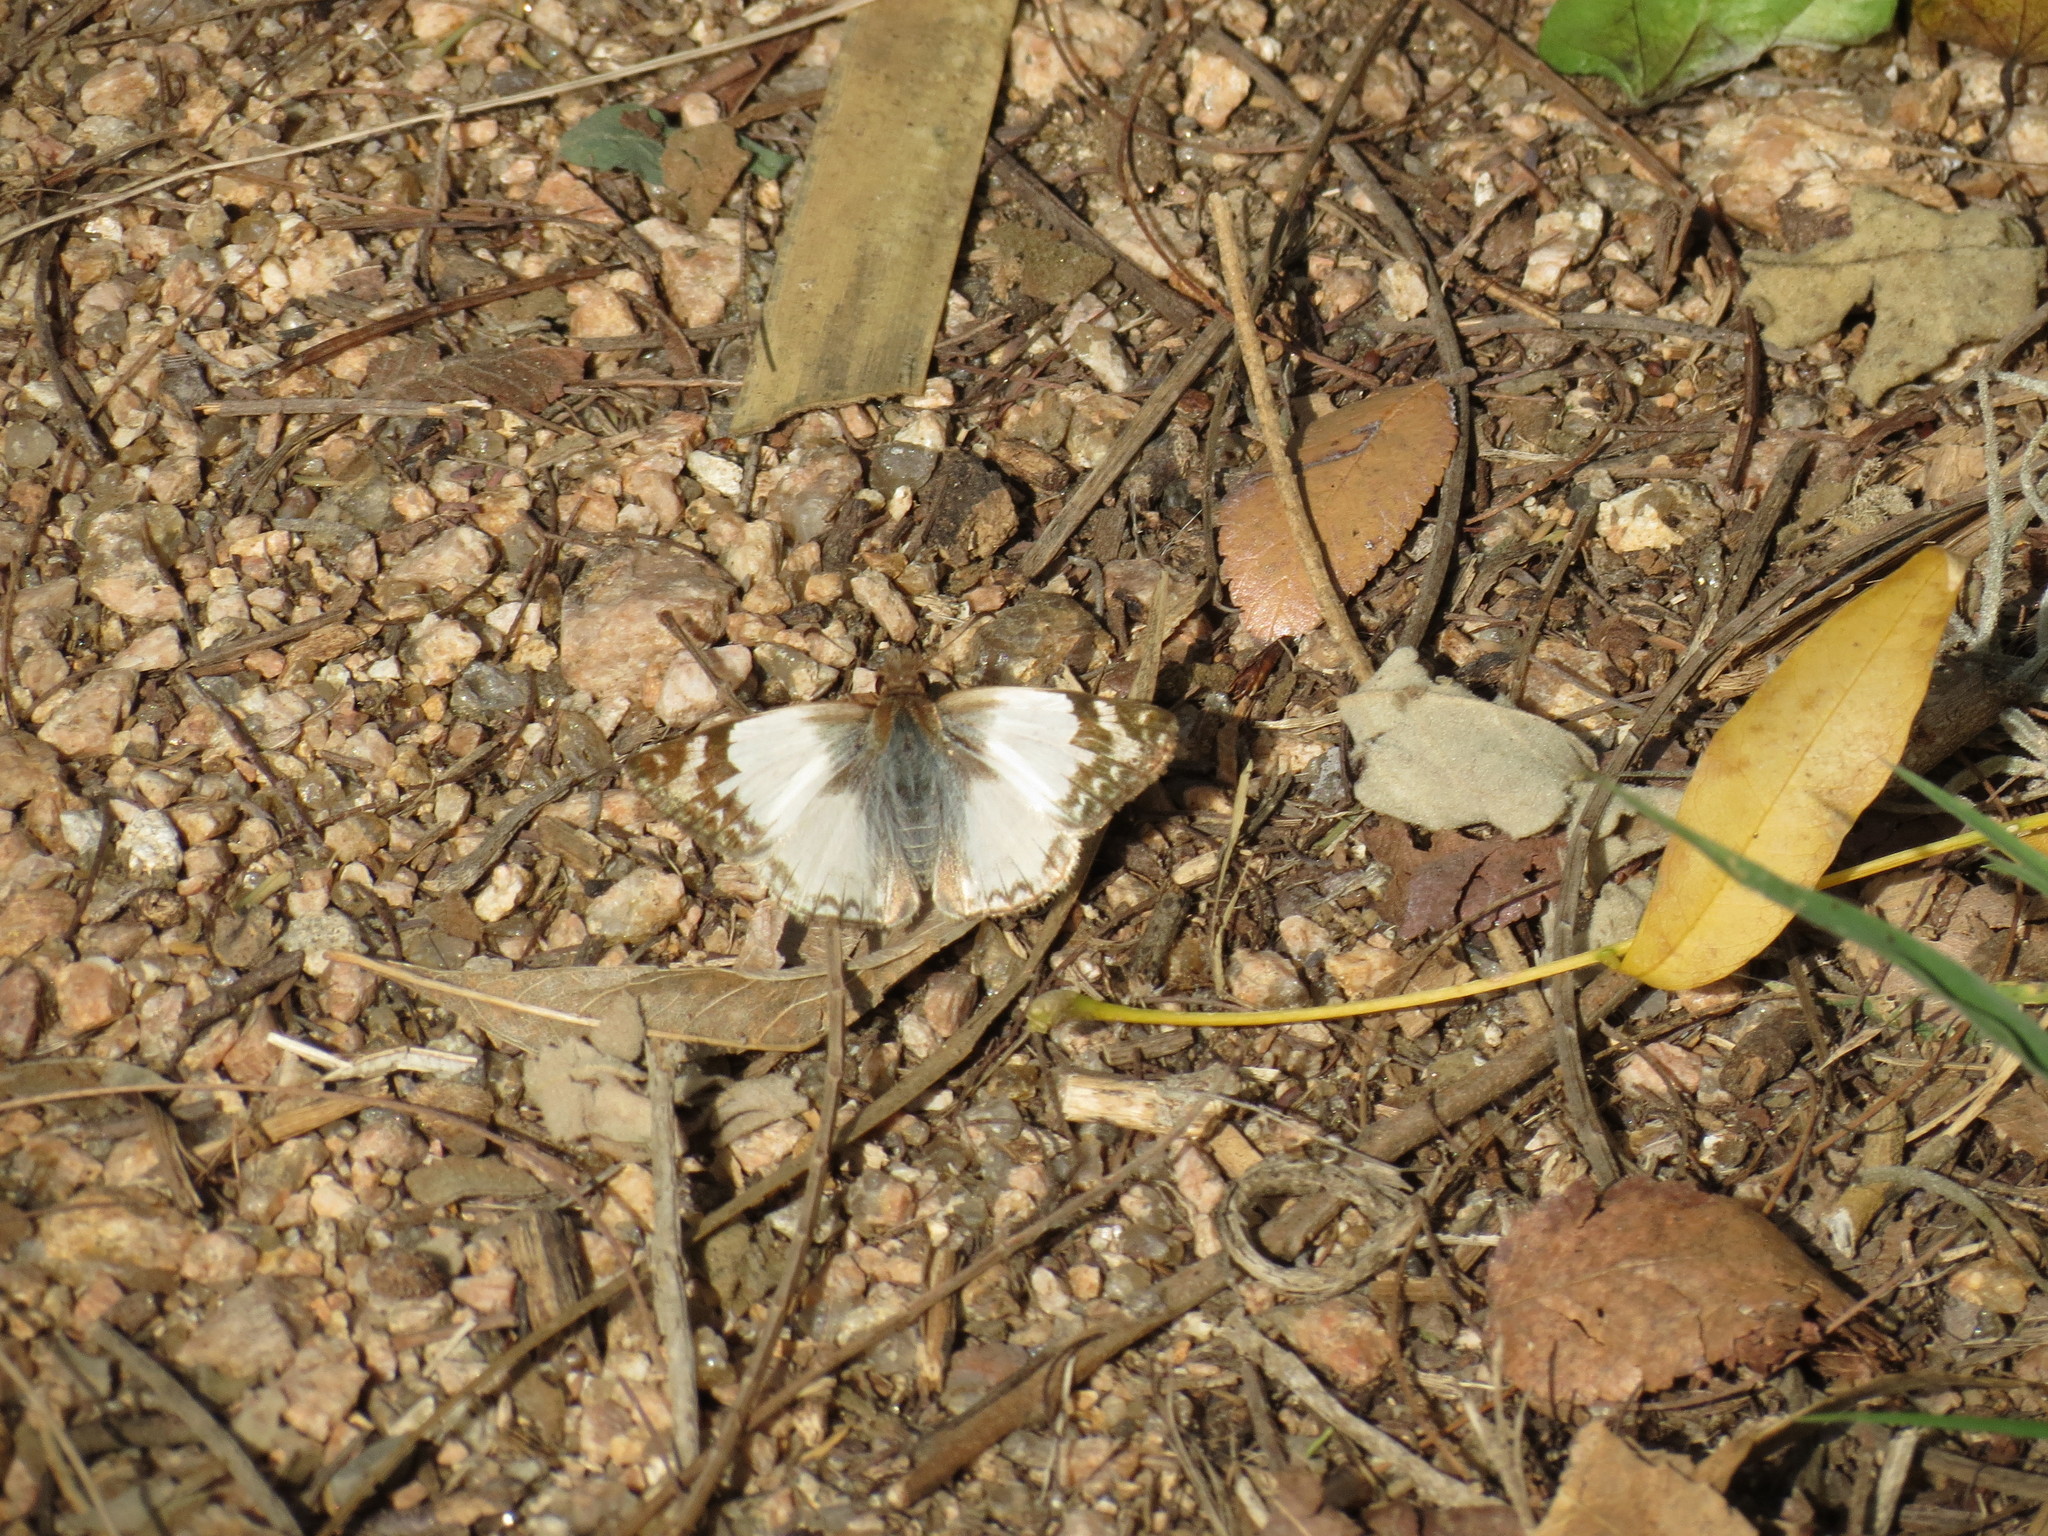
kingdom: Animalia
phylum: Arthropoda
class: Insecta
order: Lepidoptera
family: Hesperiidae
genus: Heliopetes
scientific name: Heliopetes laviana
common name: Laviana white-skipper
